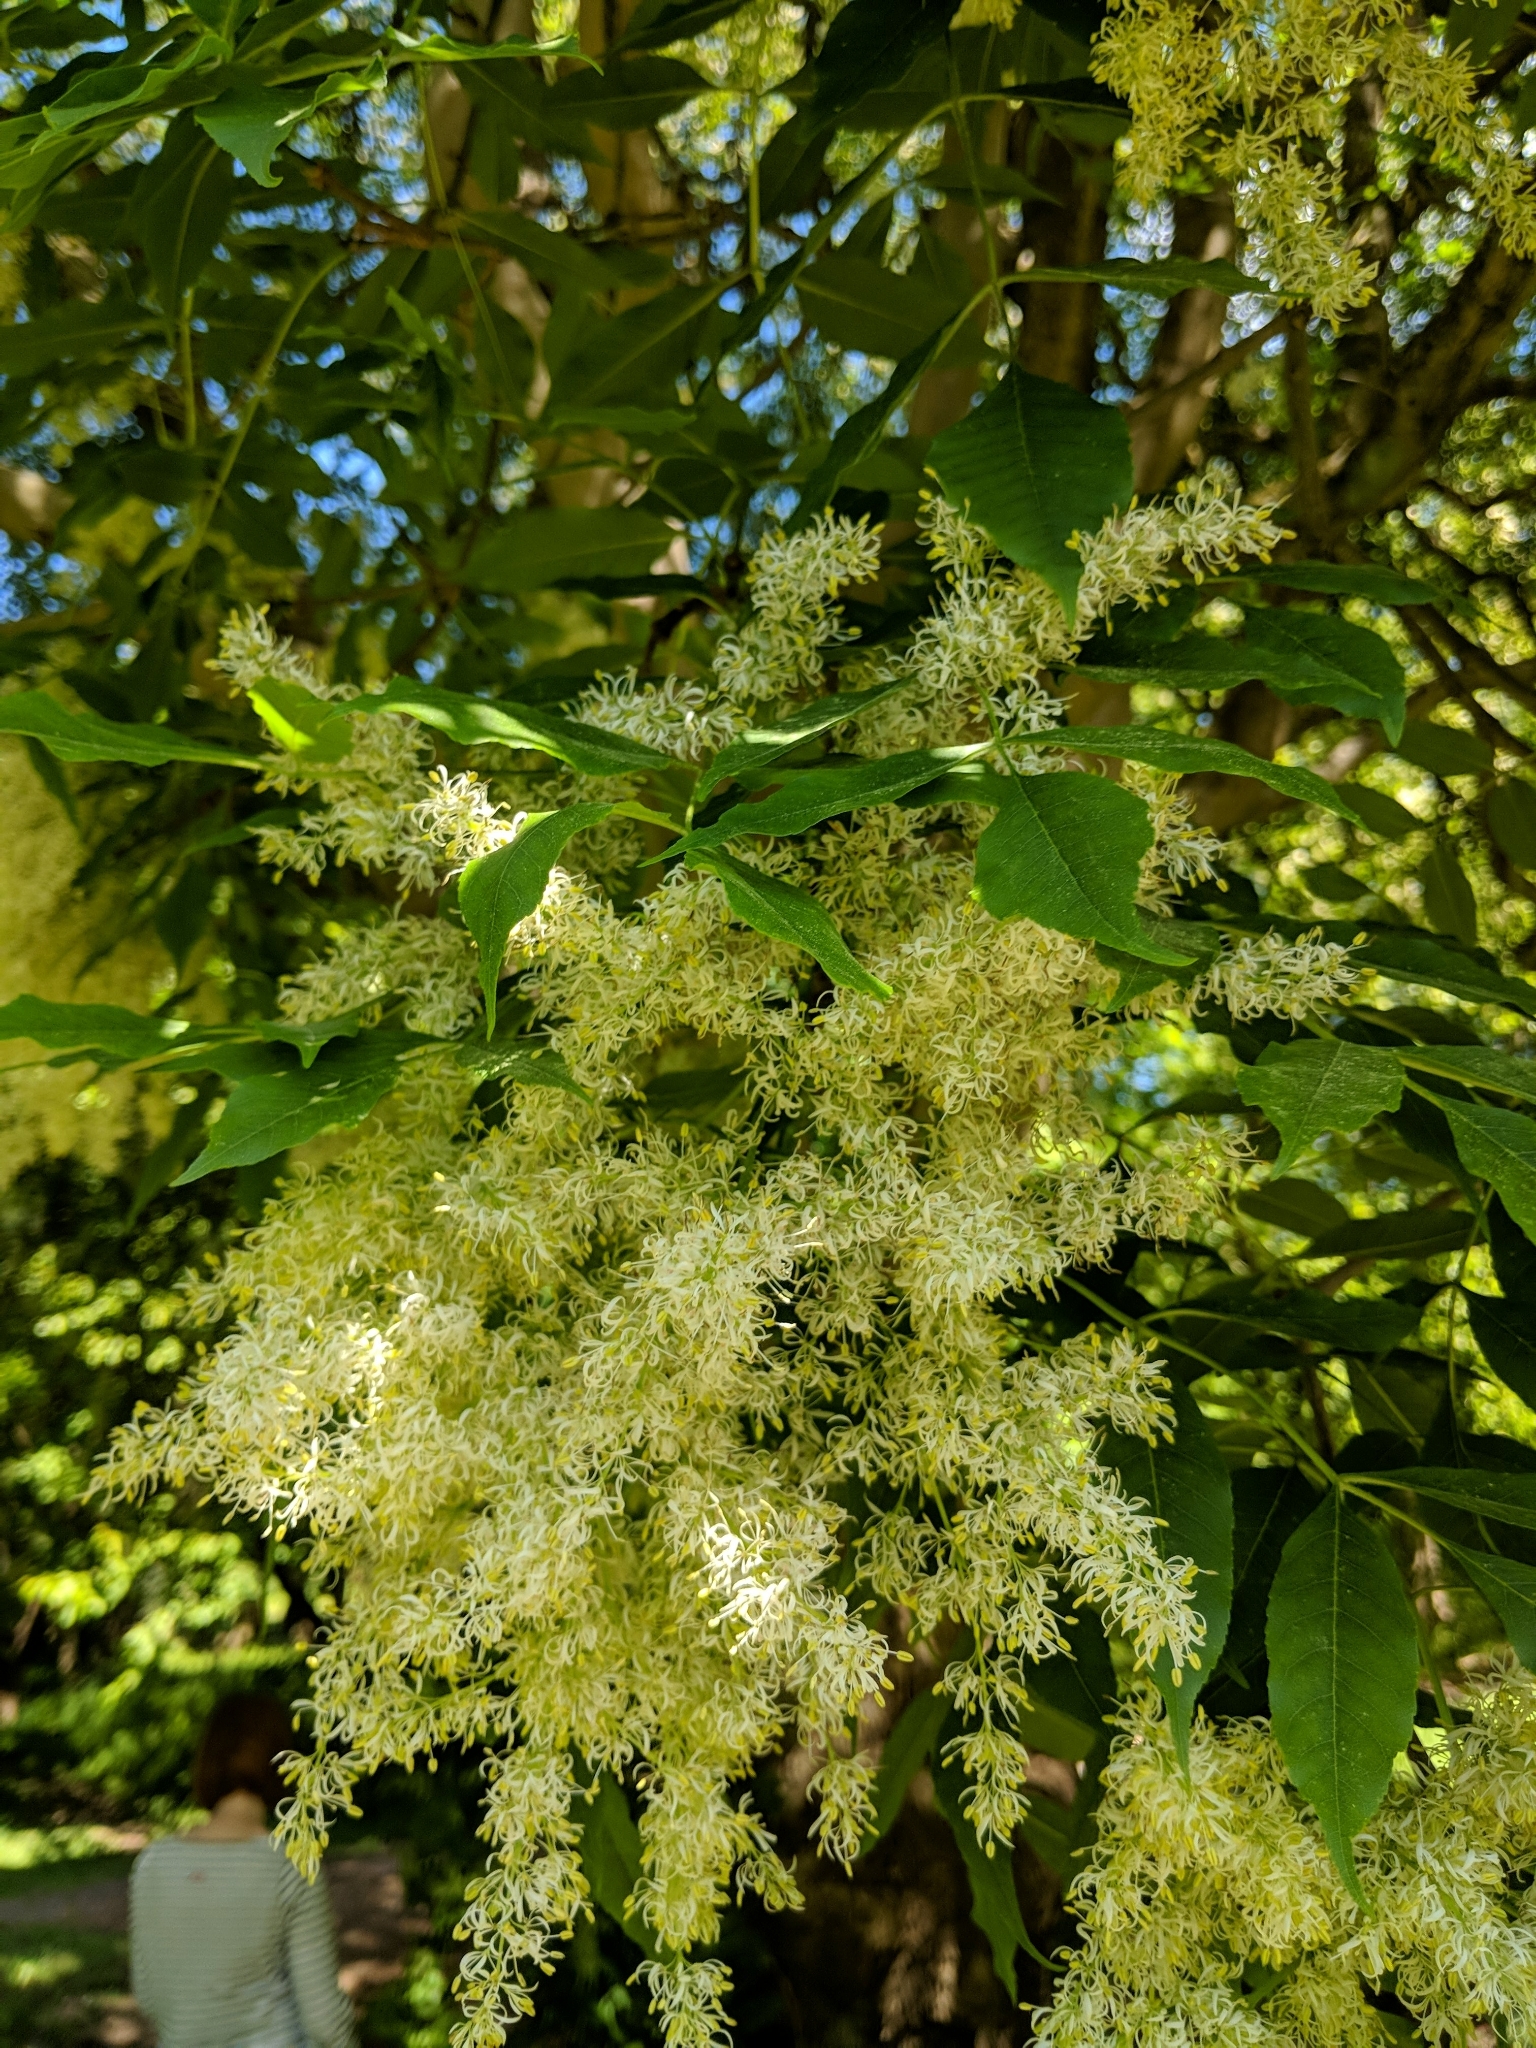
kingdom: Plantae
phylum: Tracheophyta
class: Magnoliopsida
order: Lamiales
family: Oleaceae
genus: Fraxinus
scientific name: Fraxinus ornus
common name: Manna ash
